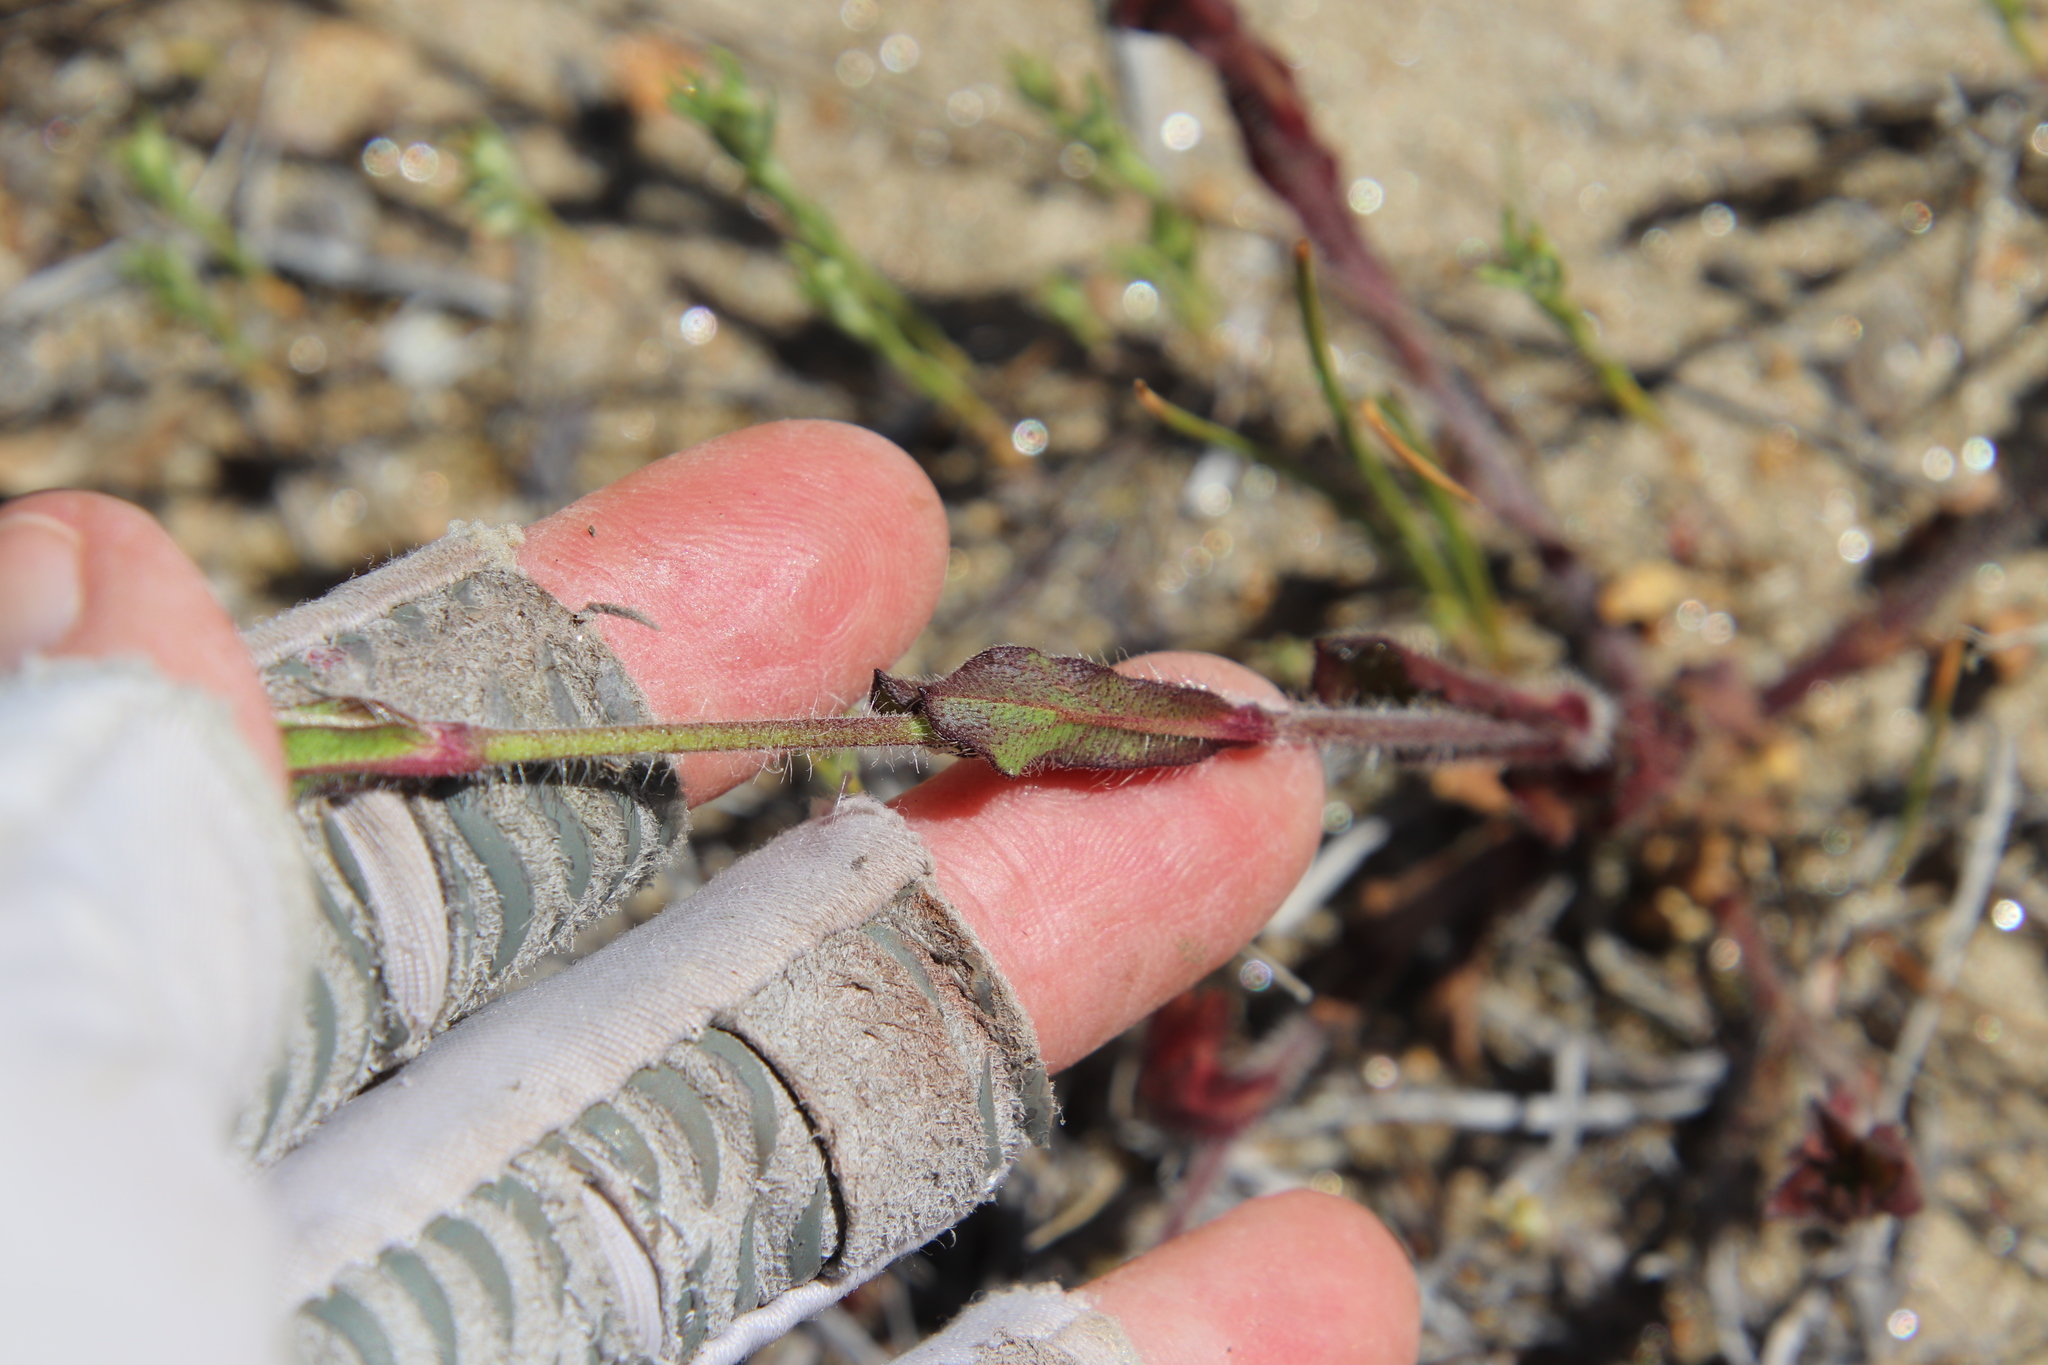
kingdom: Plantae
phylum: Tracheophyta
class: Magnoliopsida
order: Caryophyllales
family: Caryophyllaceae
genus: Silene
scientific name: Silene gallica
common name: Small-flowered catchfly
